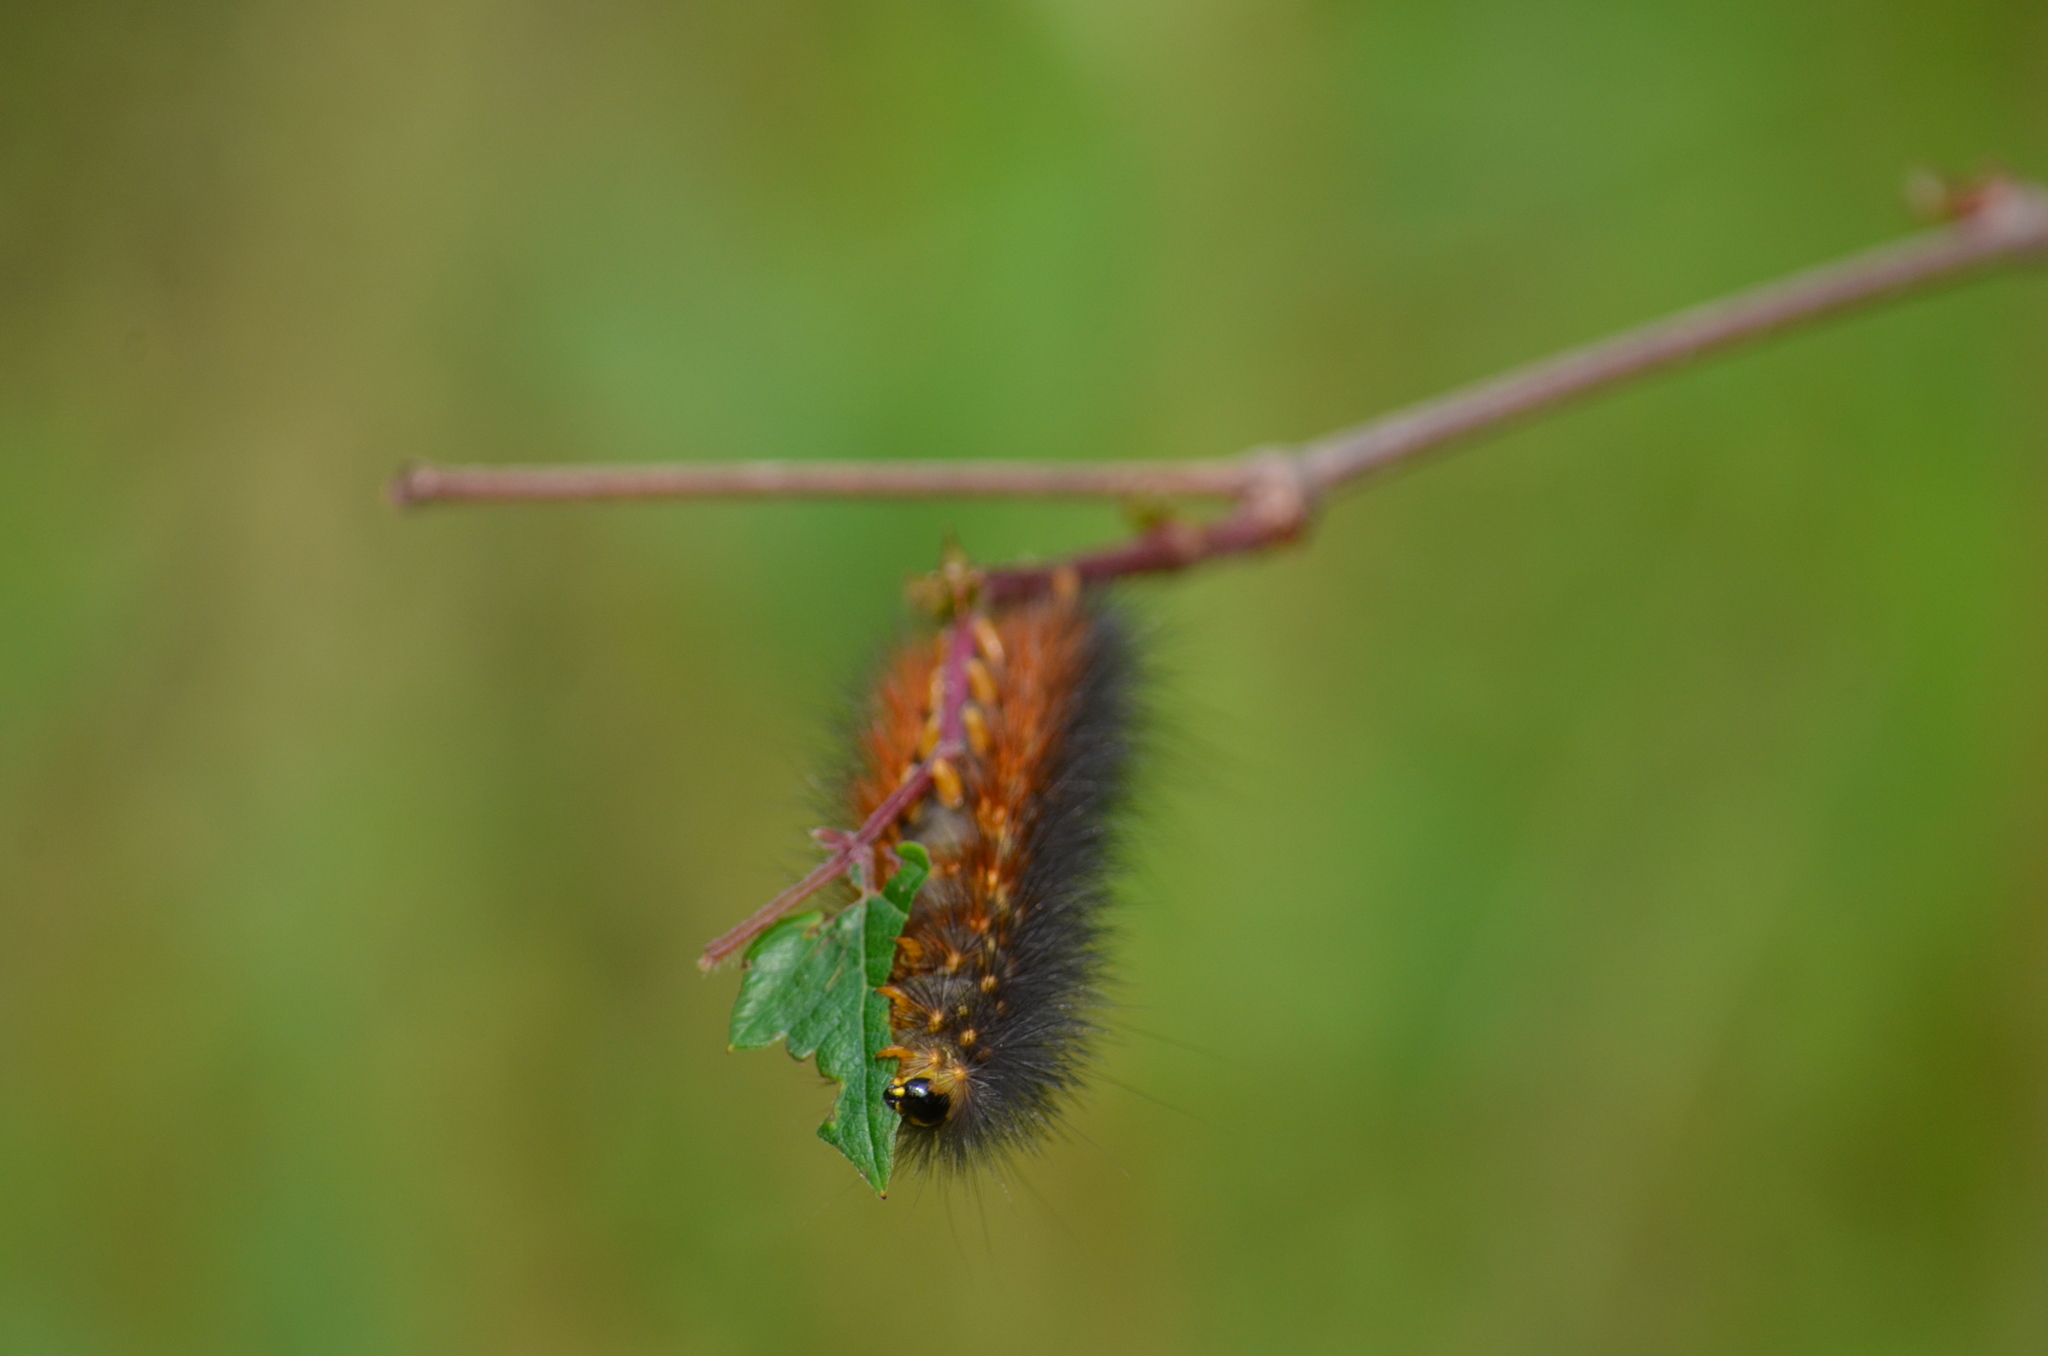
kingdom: Animalia
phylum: Arthropoda
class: Insecta
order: Lepidoptera
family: Erebidae
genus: Estigmene
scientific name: Estigmene acrea
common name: Salt marsh moth
